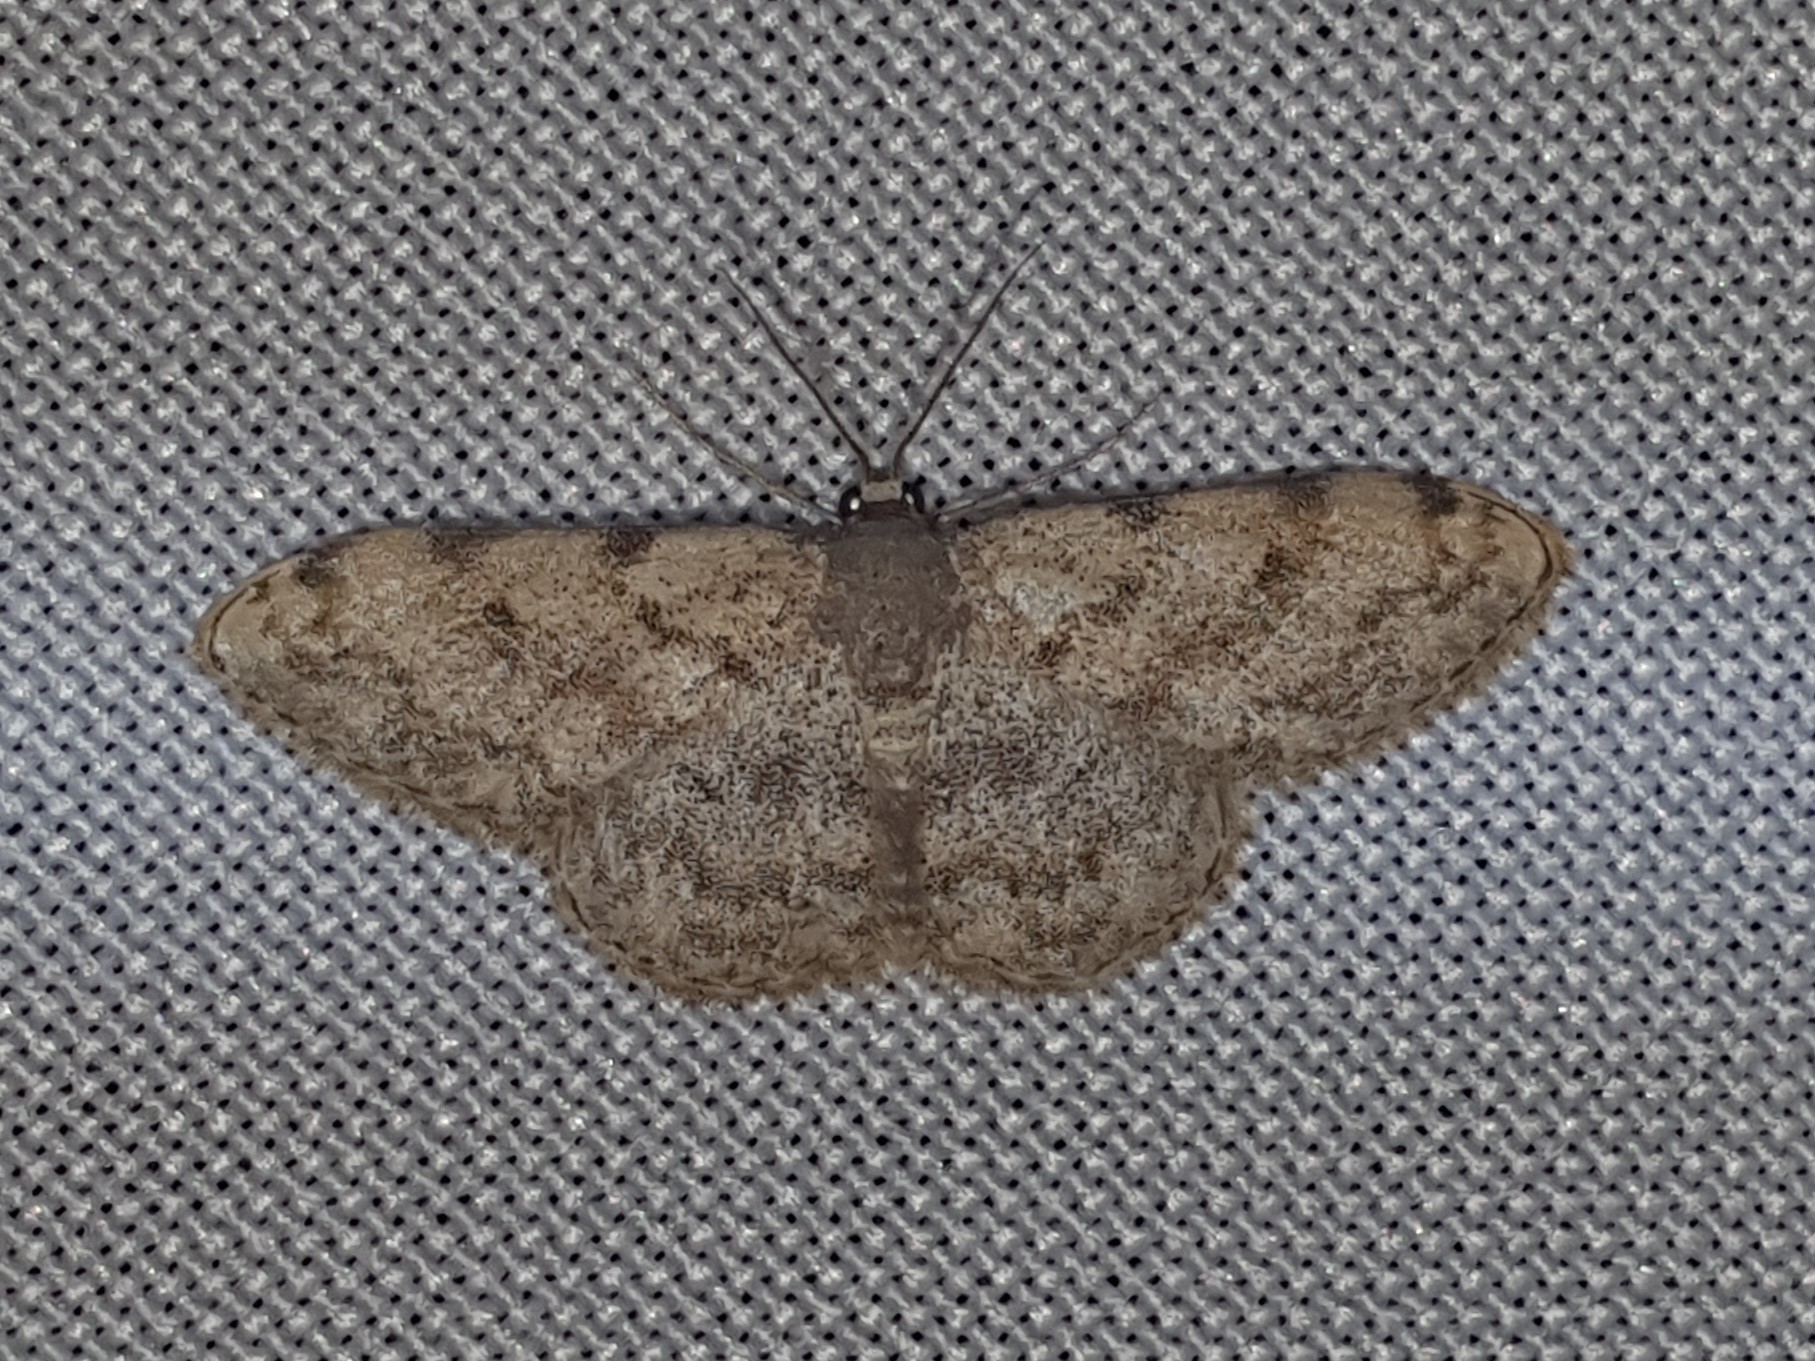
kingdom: Animalia
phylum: Arthropoda
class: Insecta
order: Lepidoptera
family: Geometridae
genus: Glossotrophia
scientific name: Glossotrophia rufomixtaria
